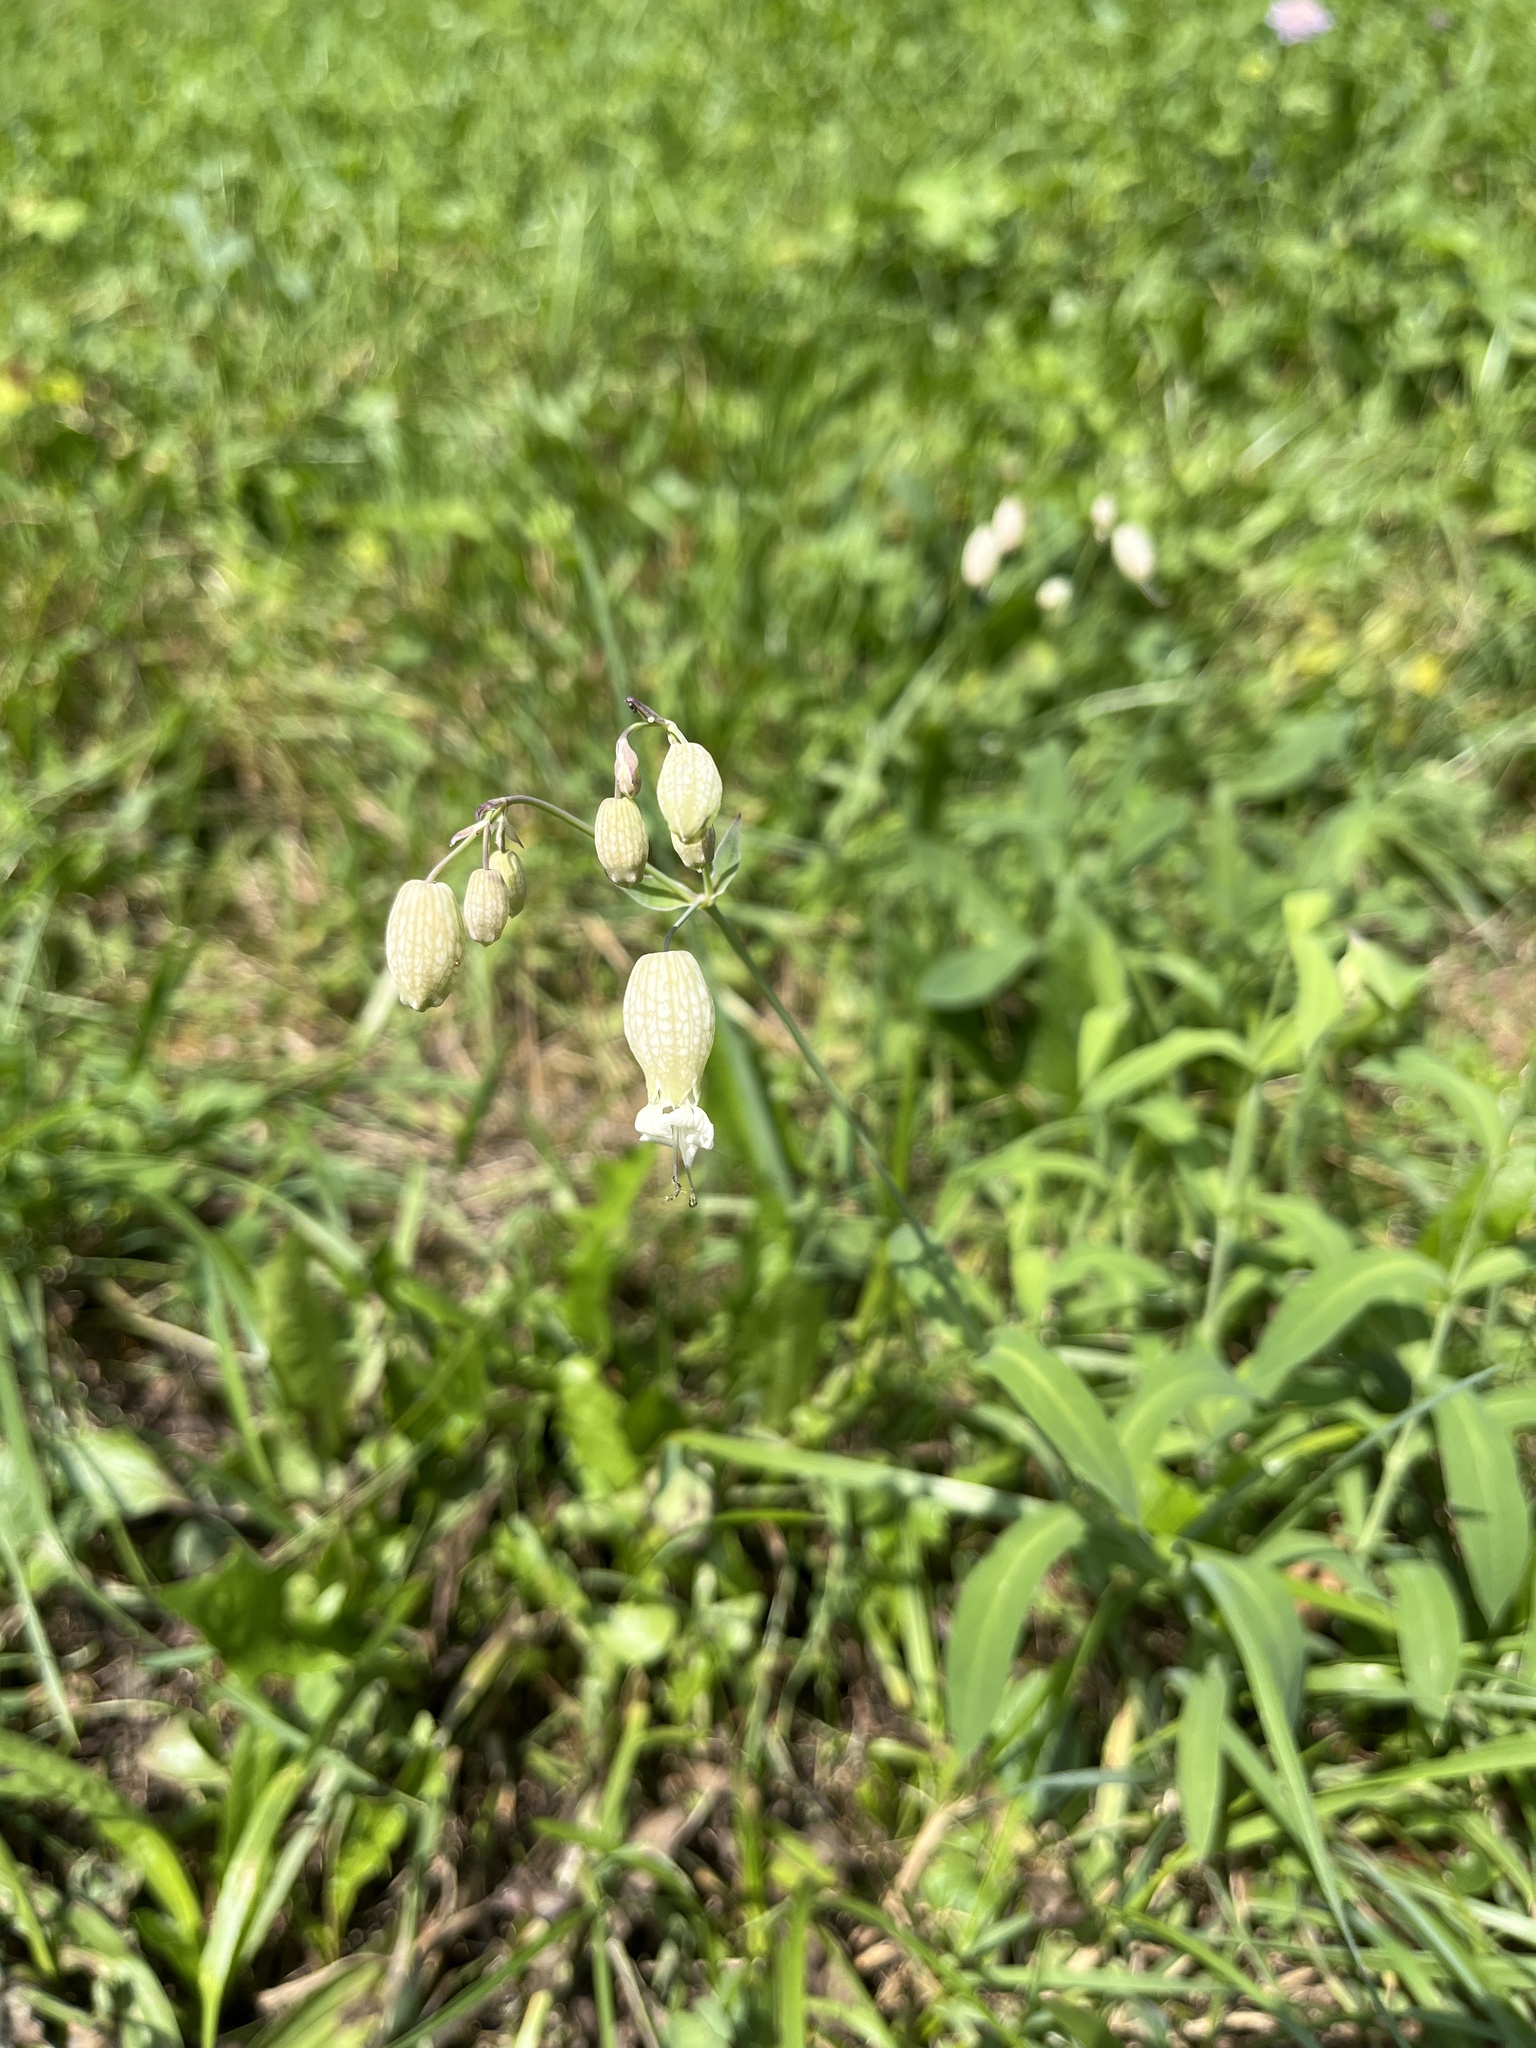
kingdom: Plantae
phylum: Tracheophyta
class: Magnoliopsida
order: Caryophyllales
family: Caryophyllaceae
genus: Silene
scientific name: Silene vulgaris
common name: Bladder campion
